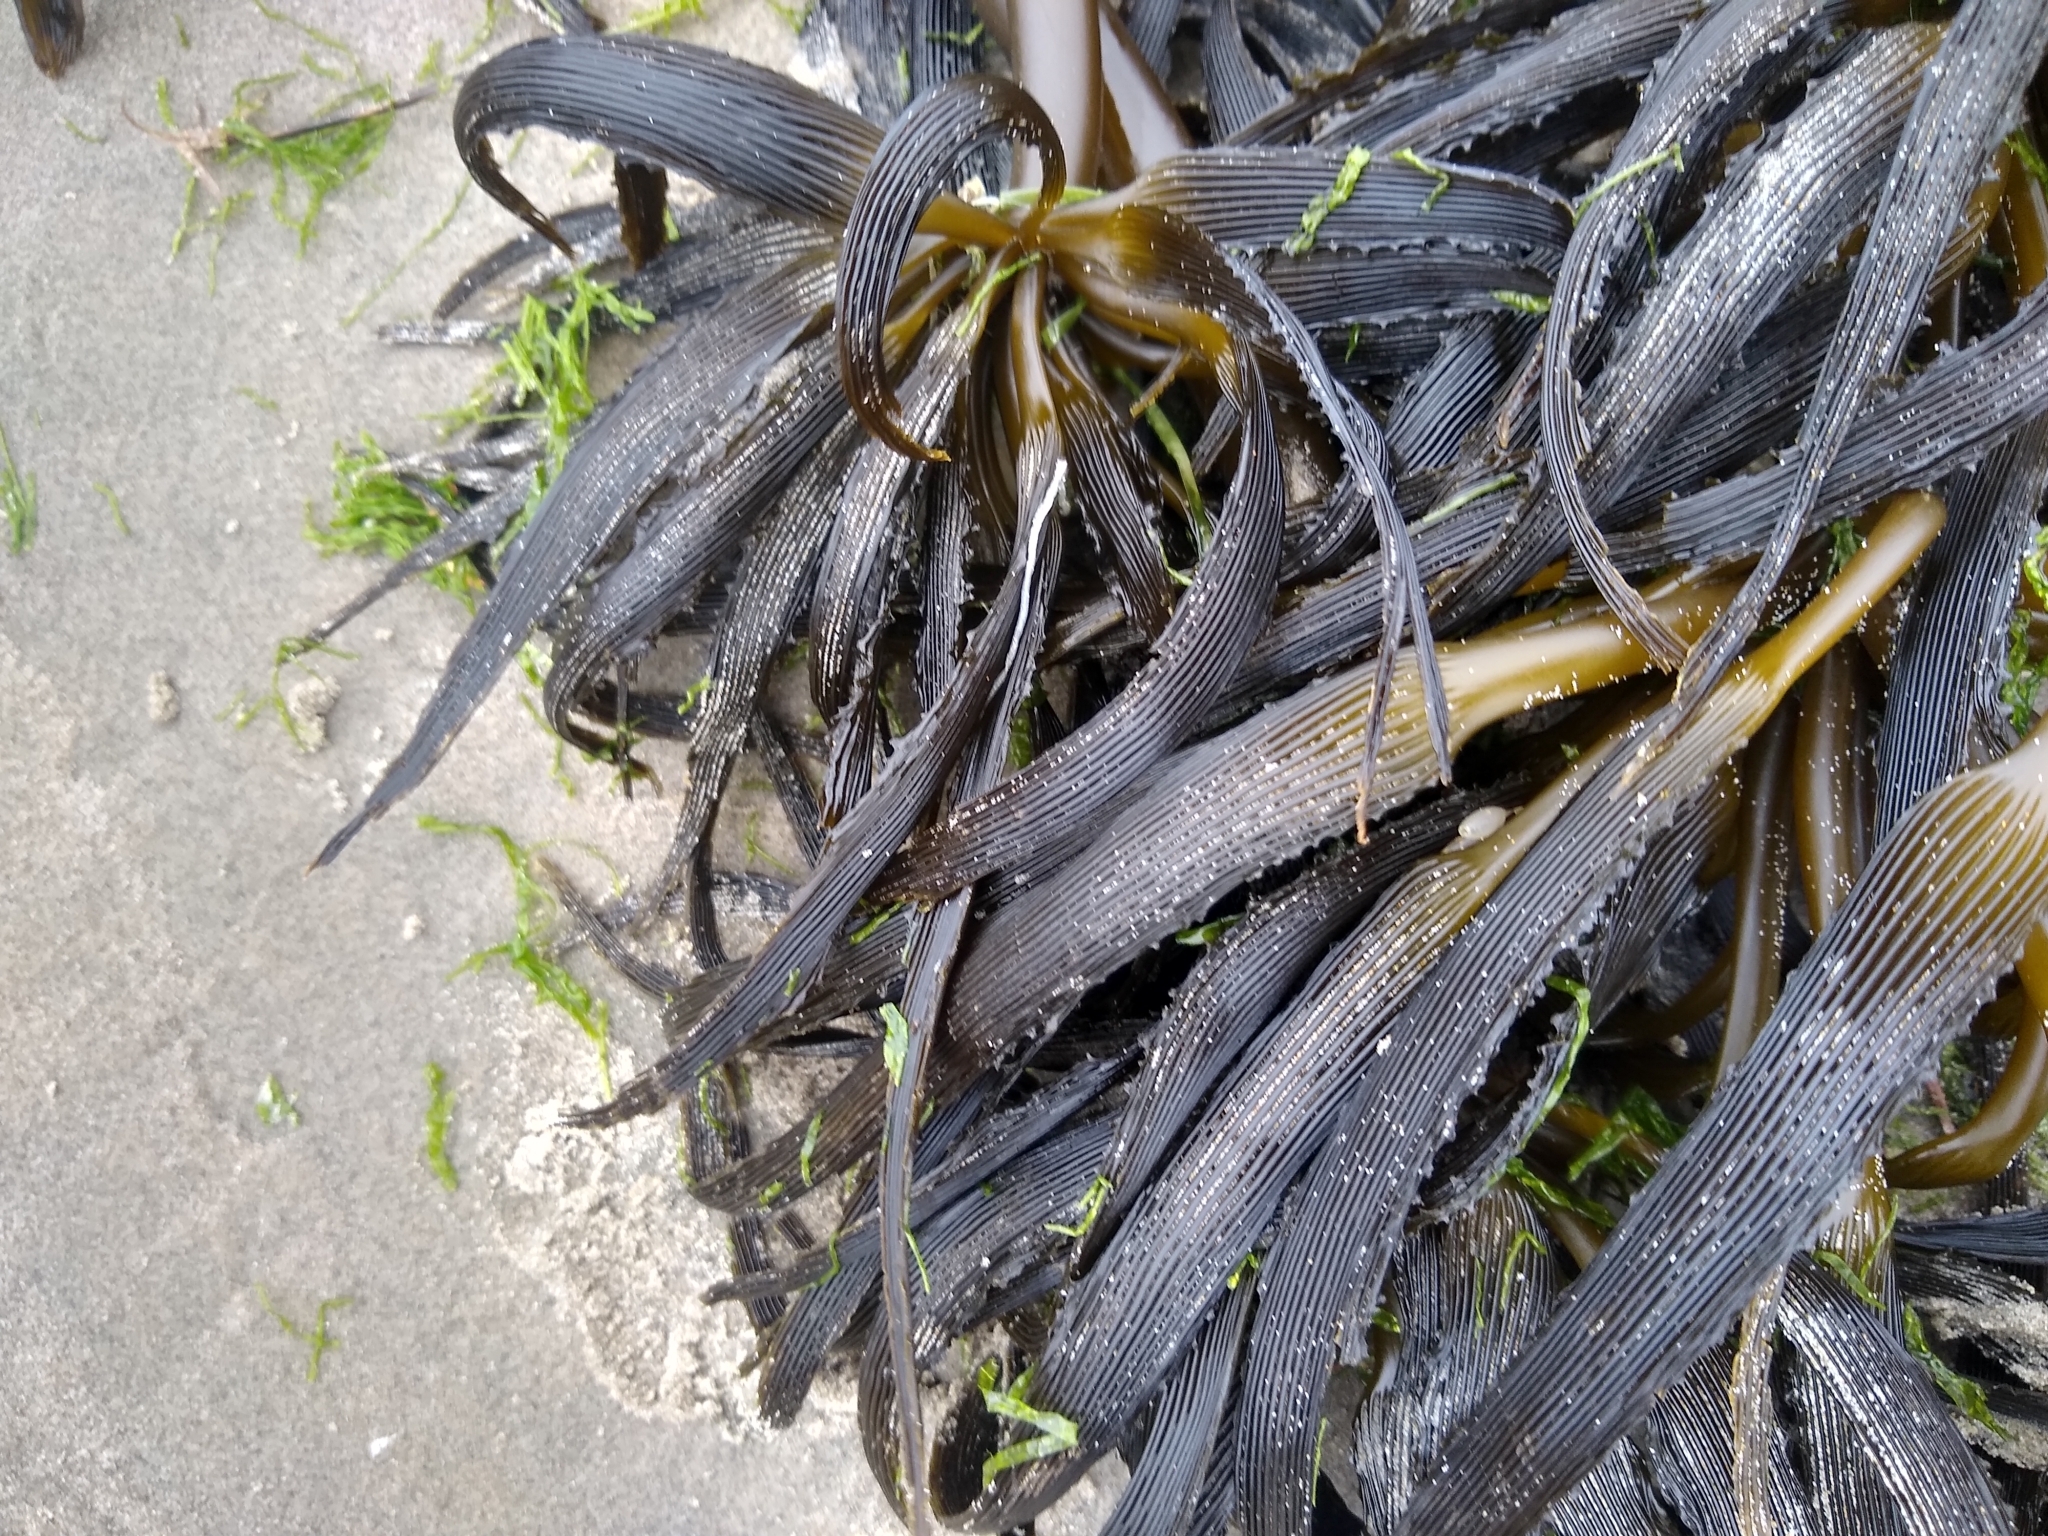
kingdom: Chromista
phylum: Ochrophyta
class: Phaeophyceae
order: Laminariales
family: Laminariaceae
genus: Postelsia
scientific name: Postelsia palmiformis
